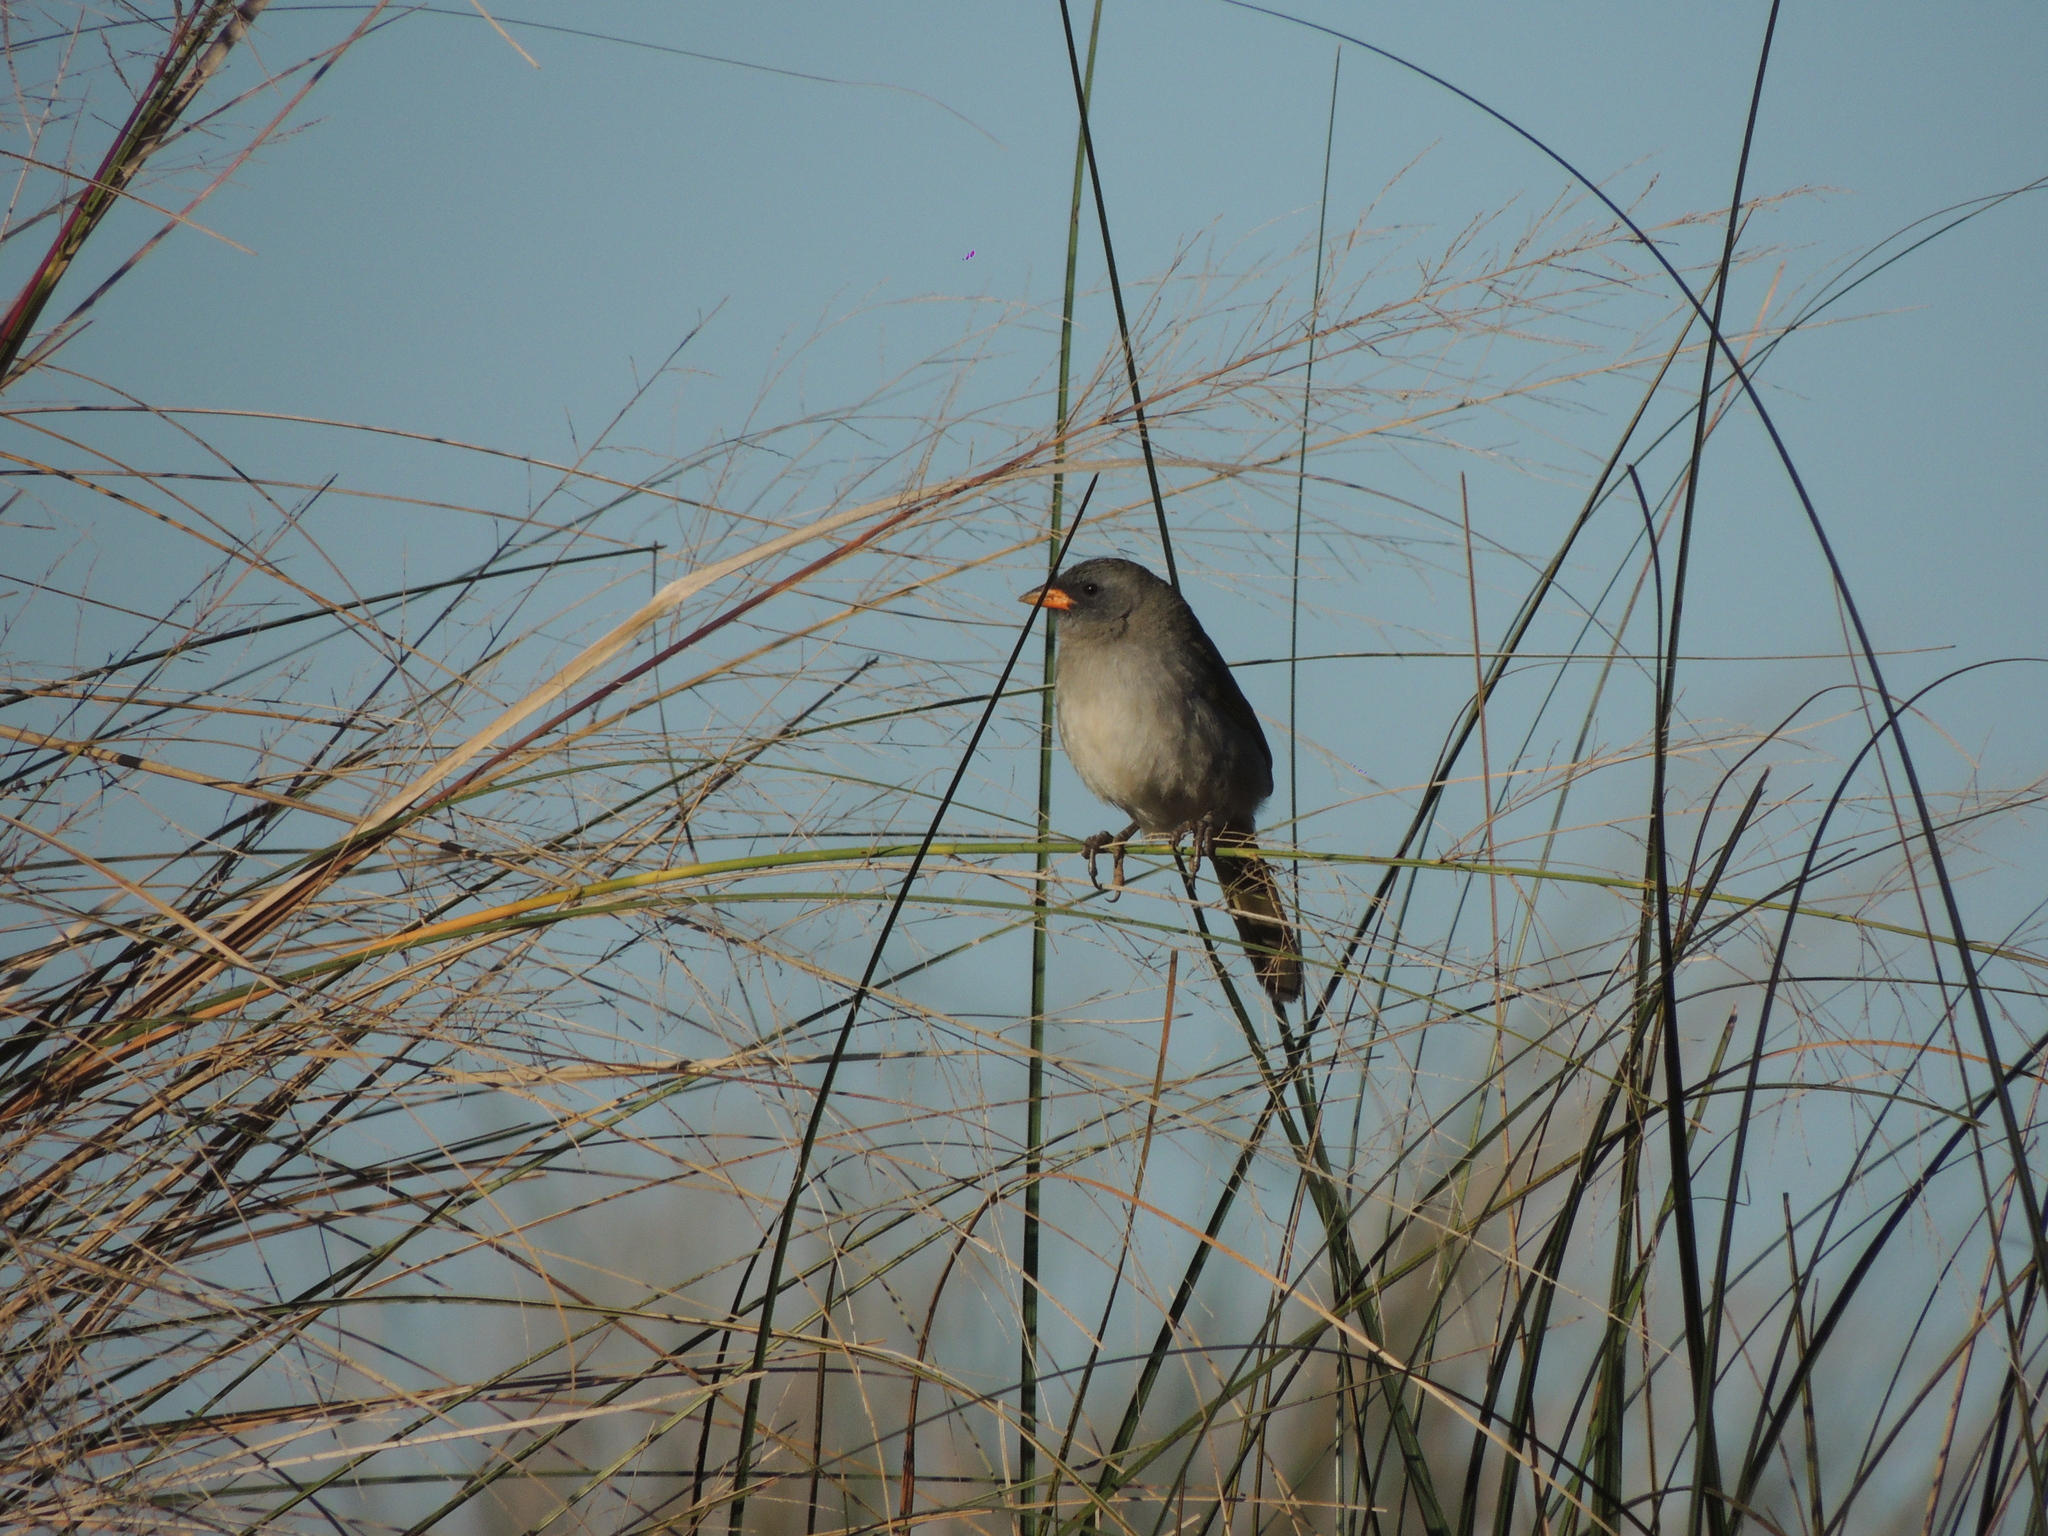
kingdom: Animalia
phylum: Chordata
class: Aves
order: Passeriformes
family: Thraupidae
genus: Embernagra
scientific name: Embernagra platensis
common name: Pampa finch
